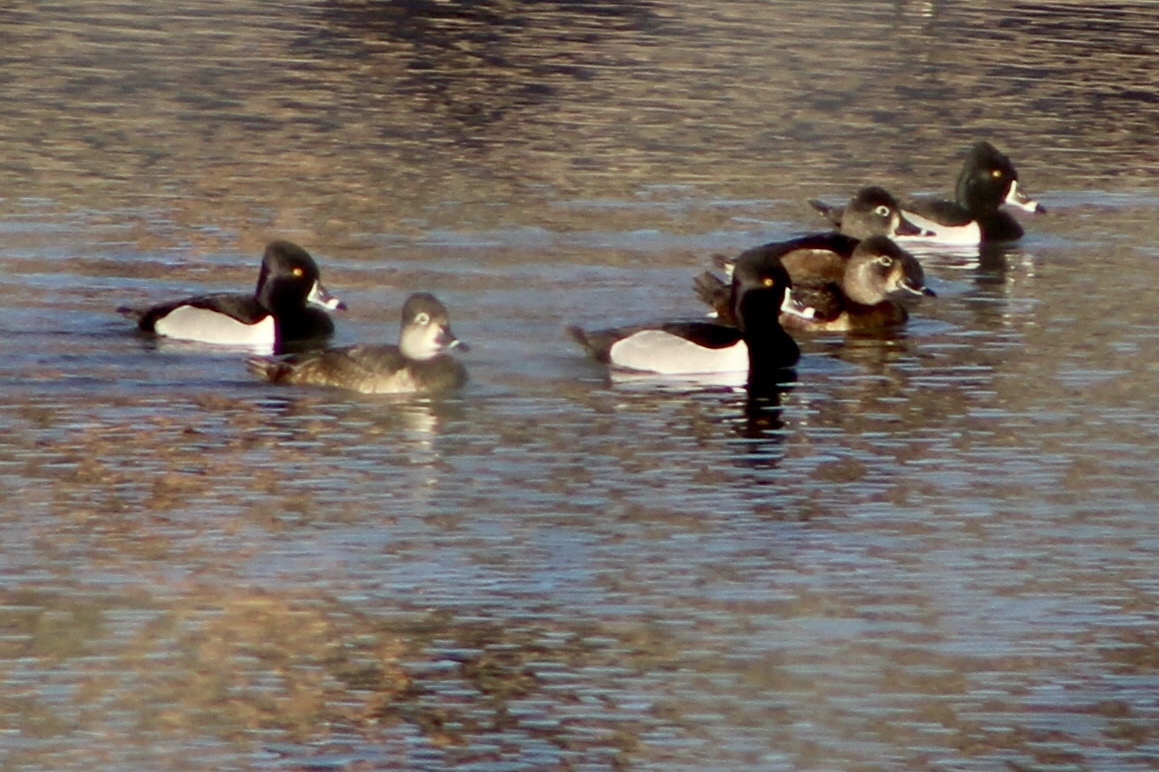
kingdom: Animalia
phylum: Chordata
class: Aves
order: Anseriformes
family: Anatidae
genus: Aythya
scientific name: Aythya collaris
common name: Ring-necked duck
